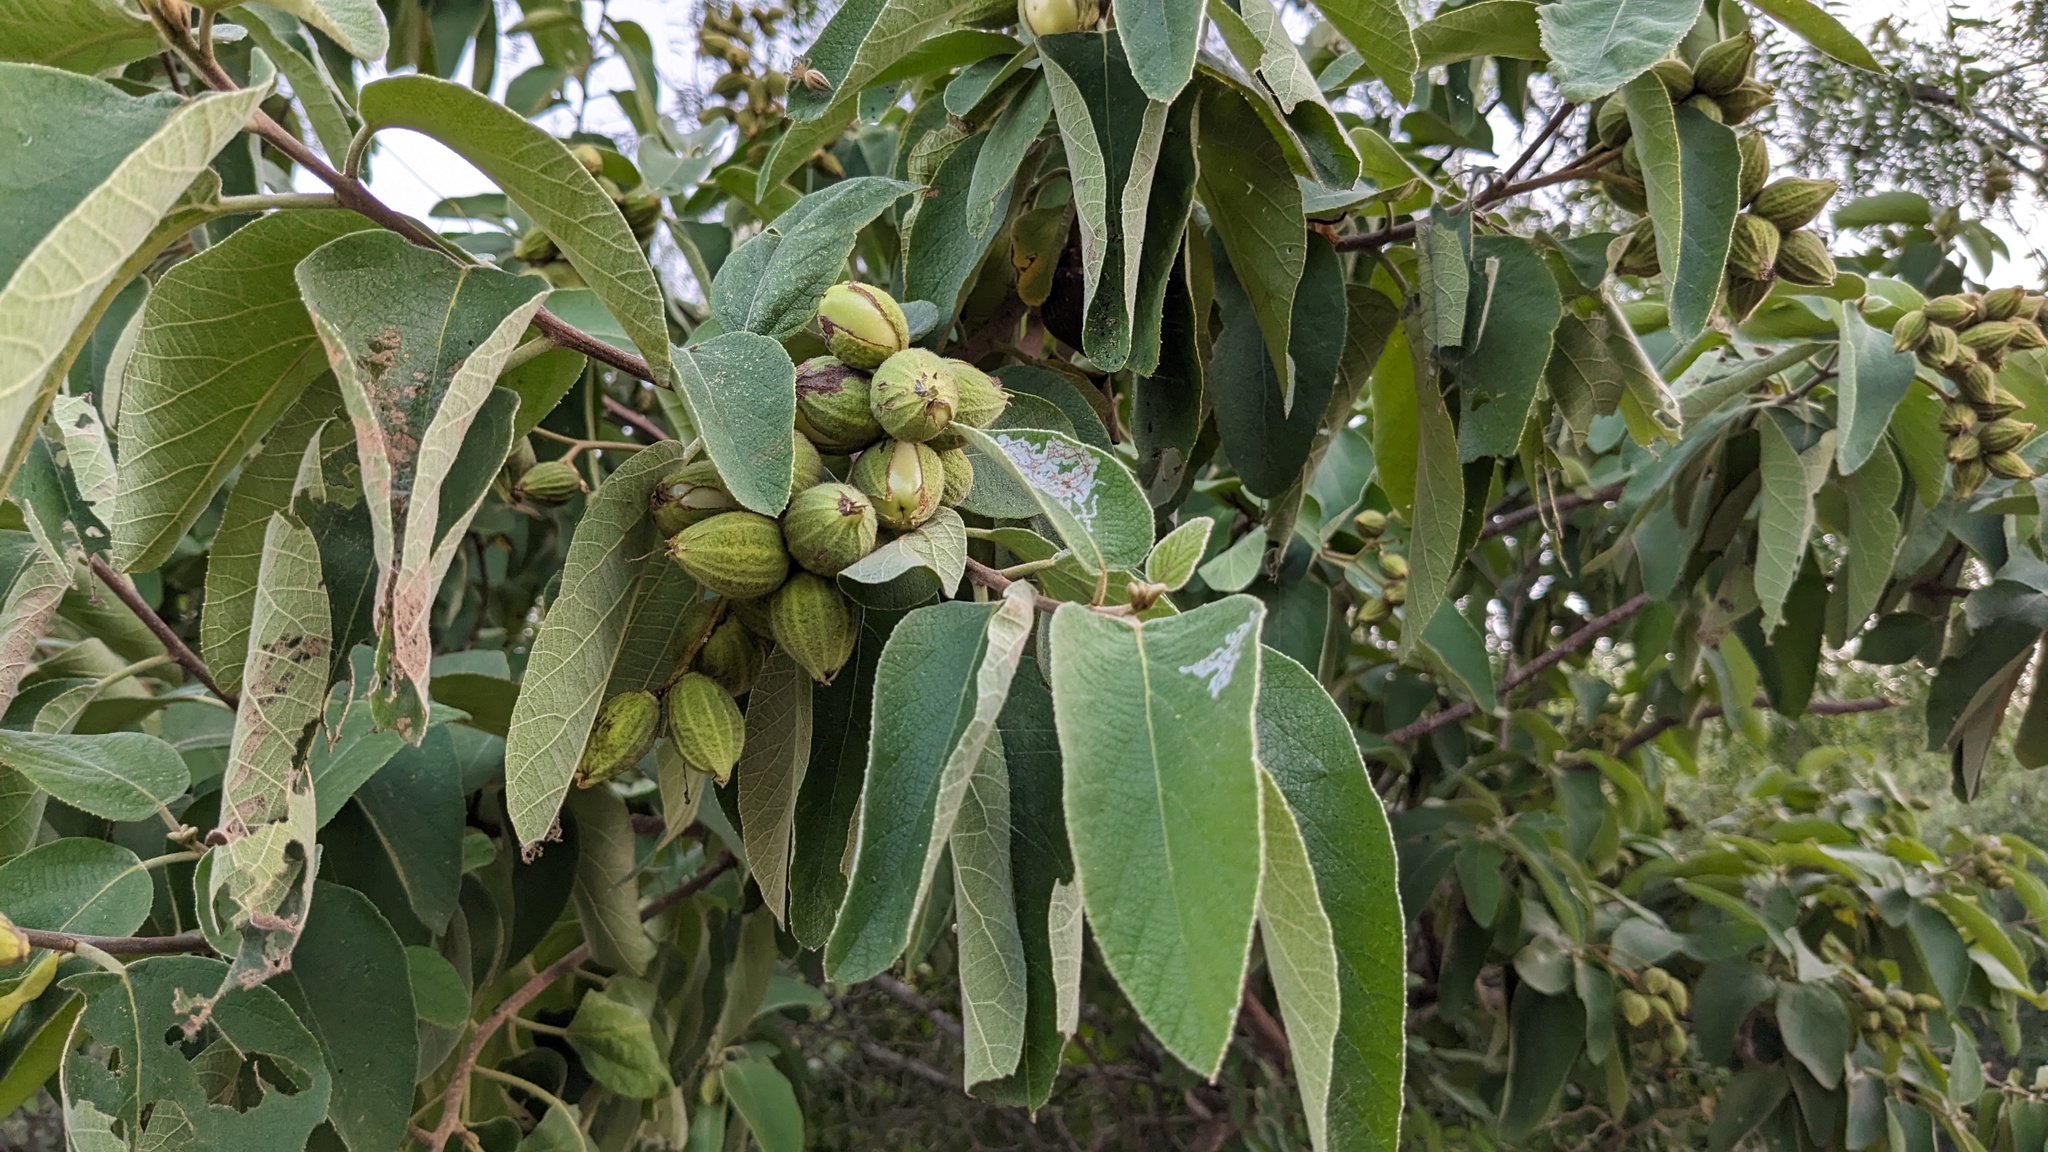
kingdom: Plantae
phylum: Tracheophyta
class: Magnoliopsida
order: Boraginales
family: Cordiaceae
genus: Cordia
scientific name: Cordia boissieri
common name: Mexican-olive
